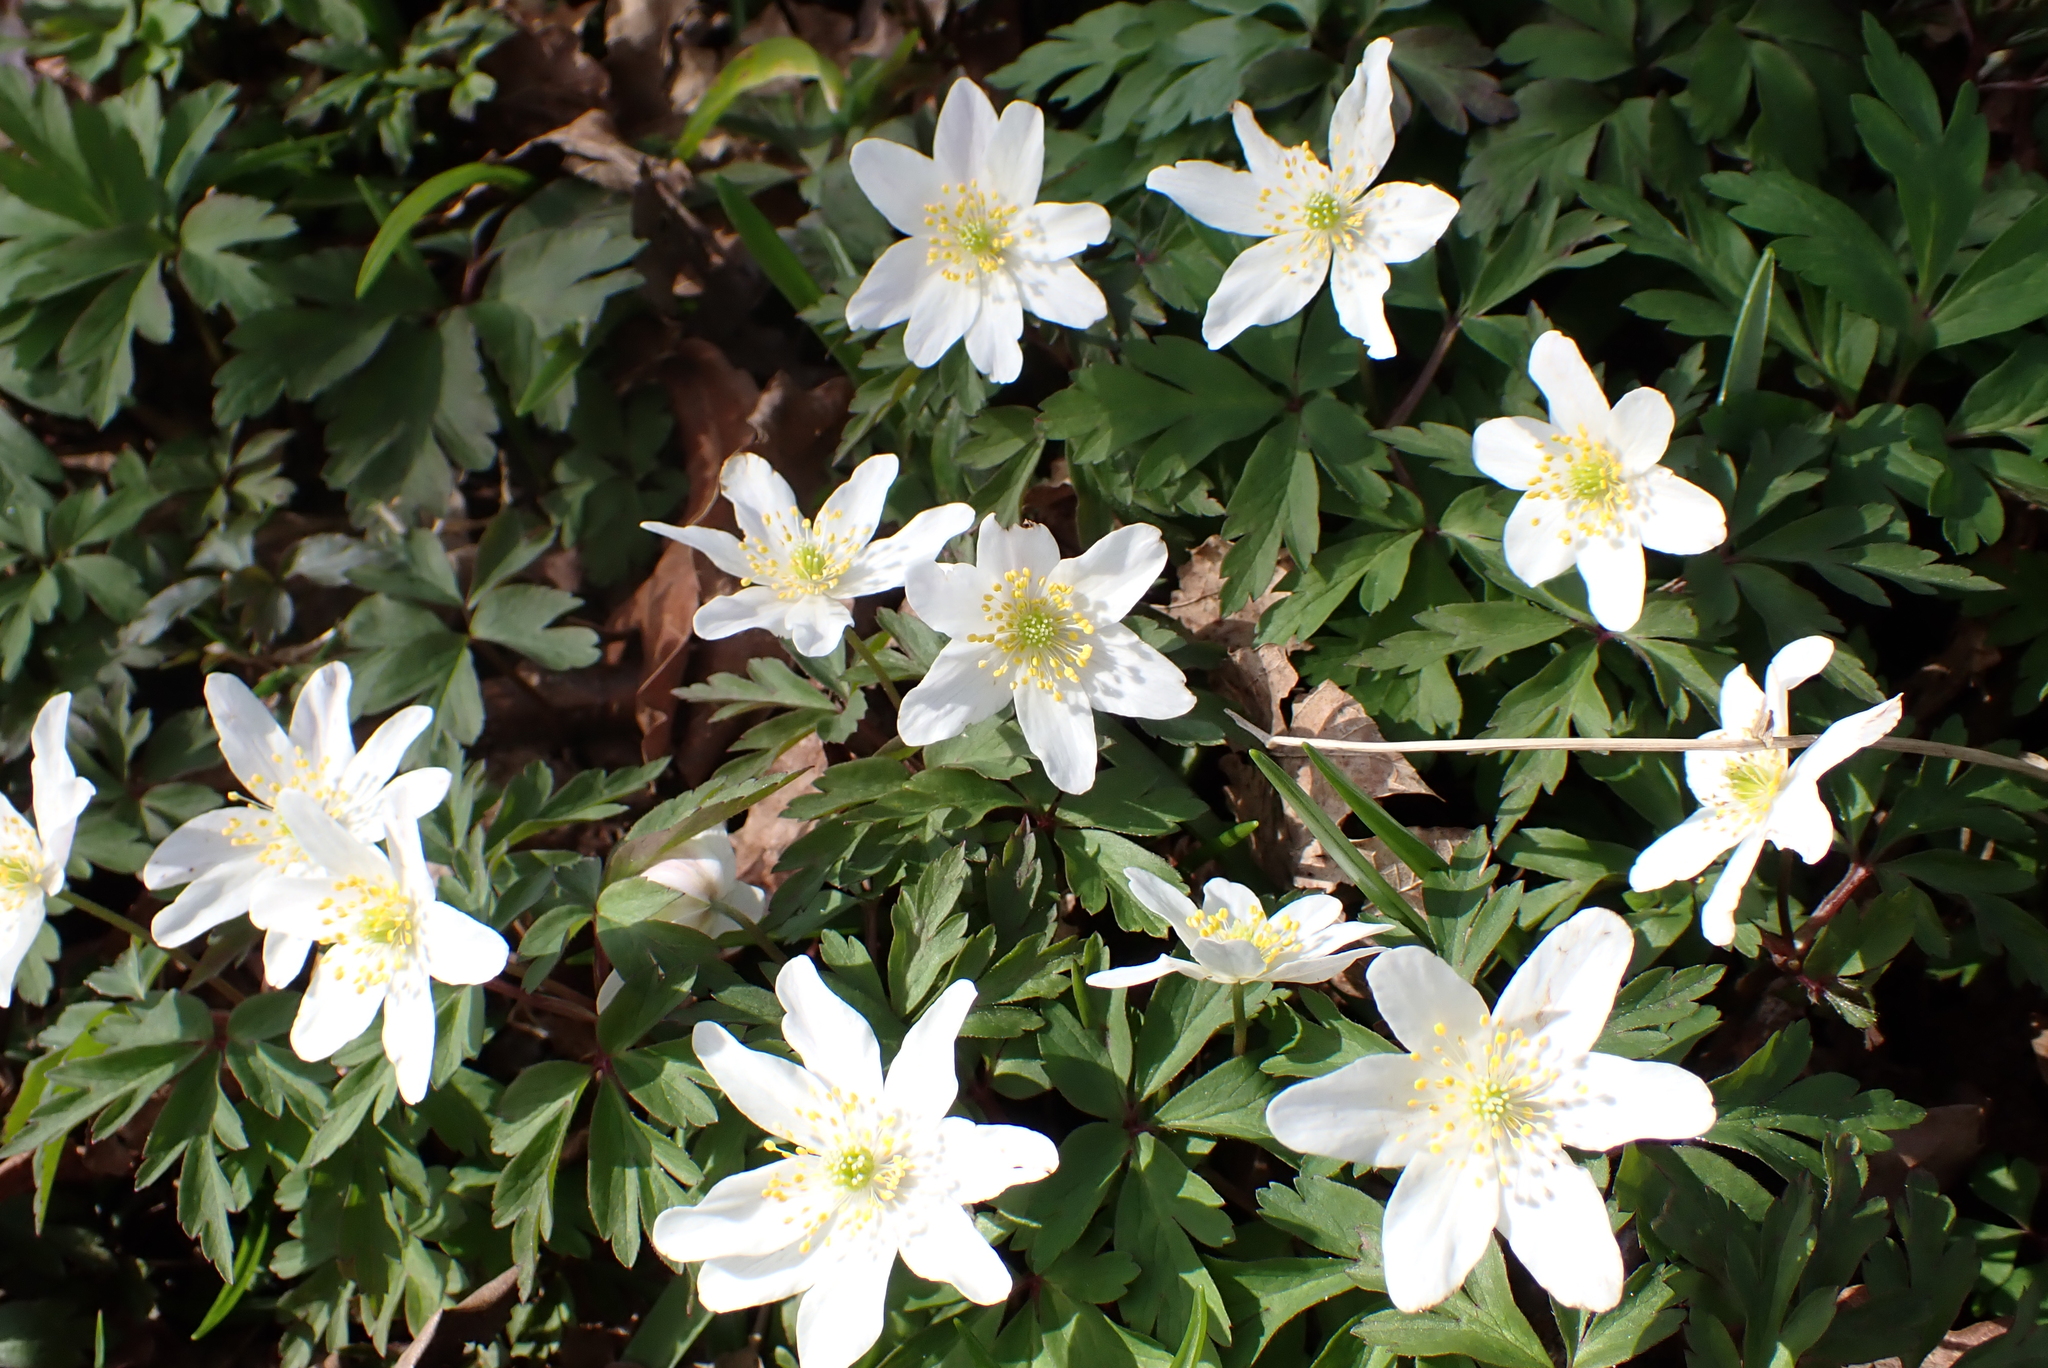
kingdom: Plantae
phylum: Tracheophyta
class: Magnoliopsida
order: Ranunculales
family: Ranunculaceae
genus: Anemone
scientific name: Anemone nemorosa
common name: Wood anemone
